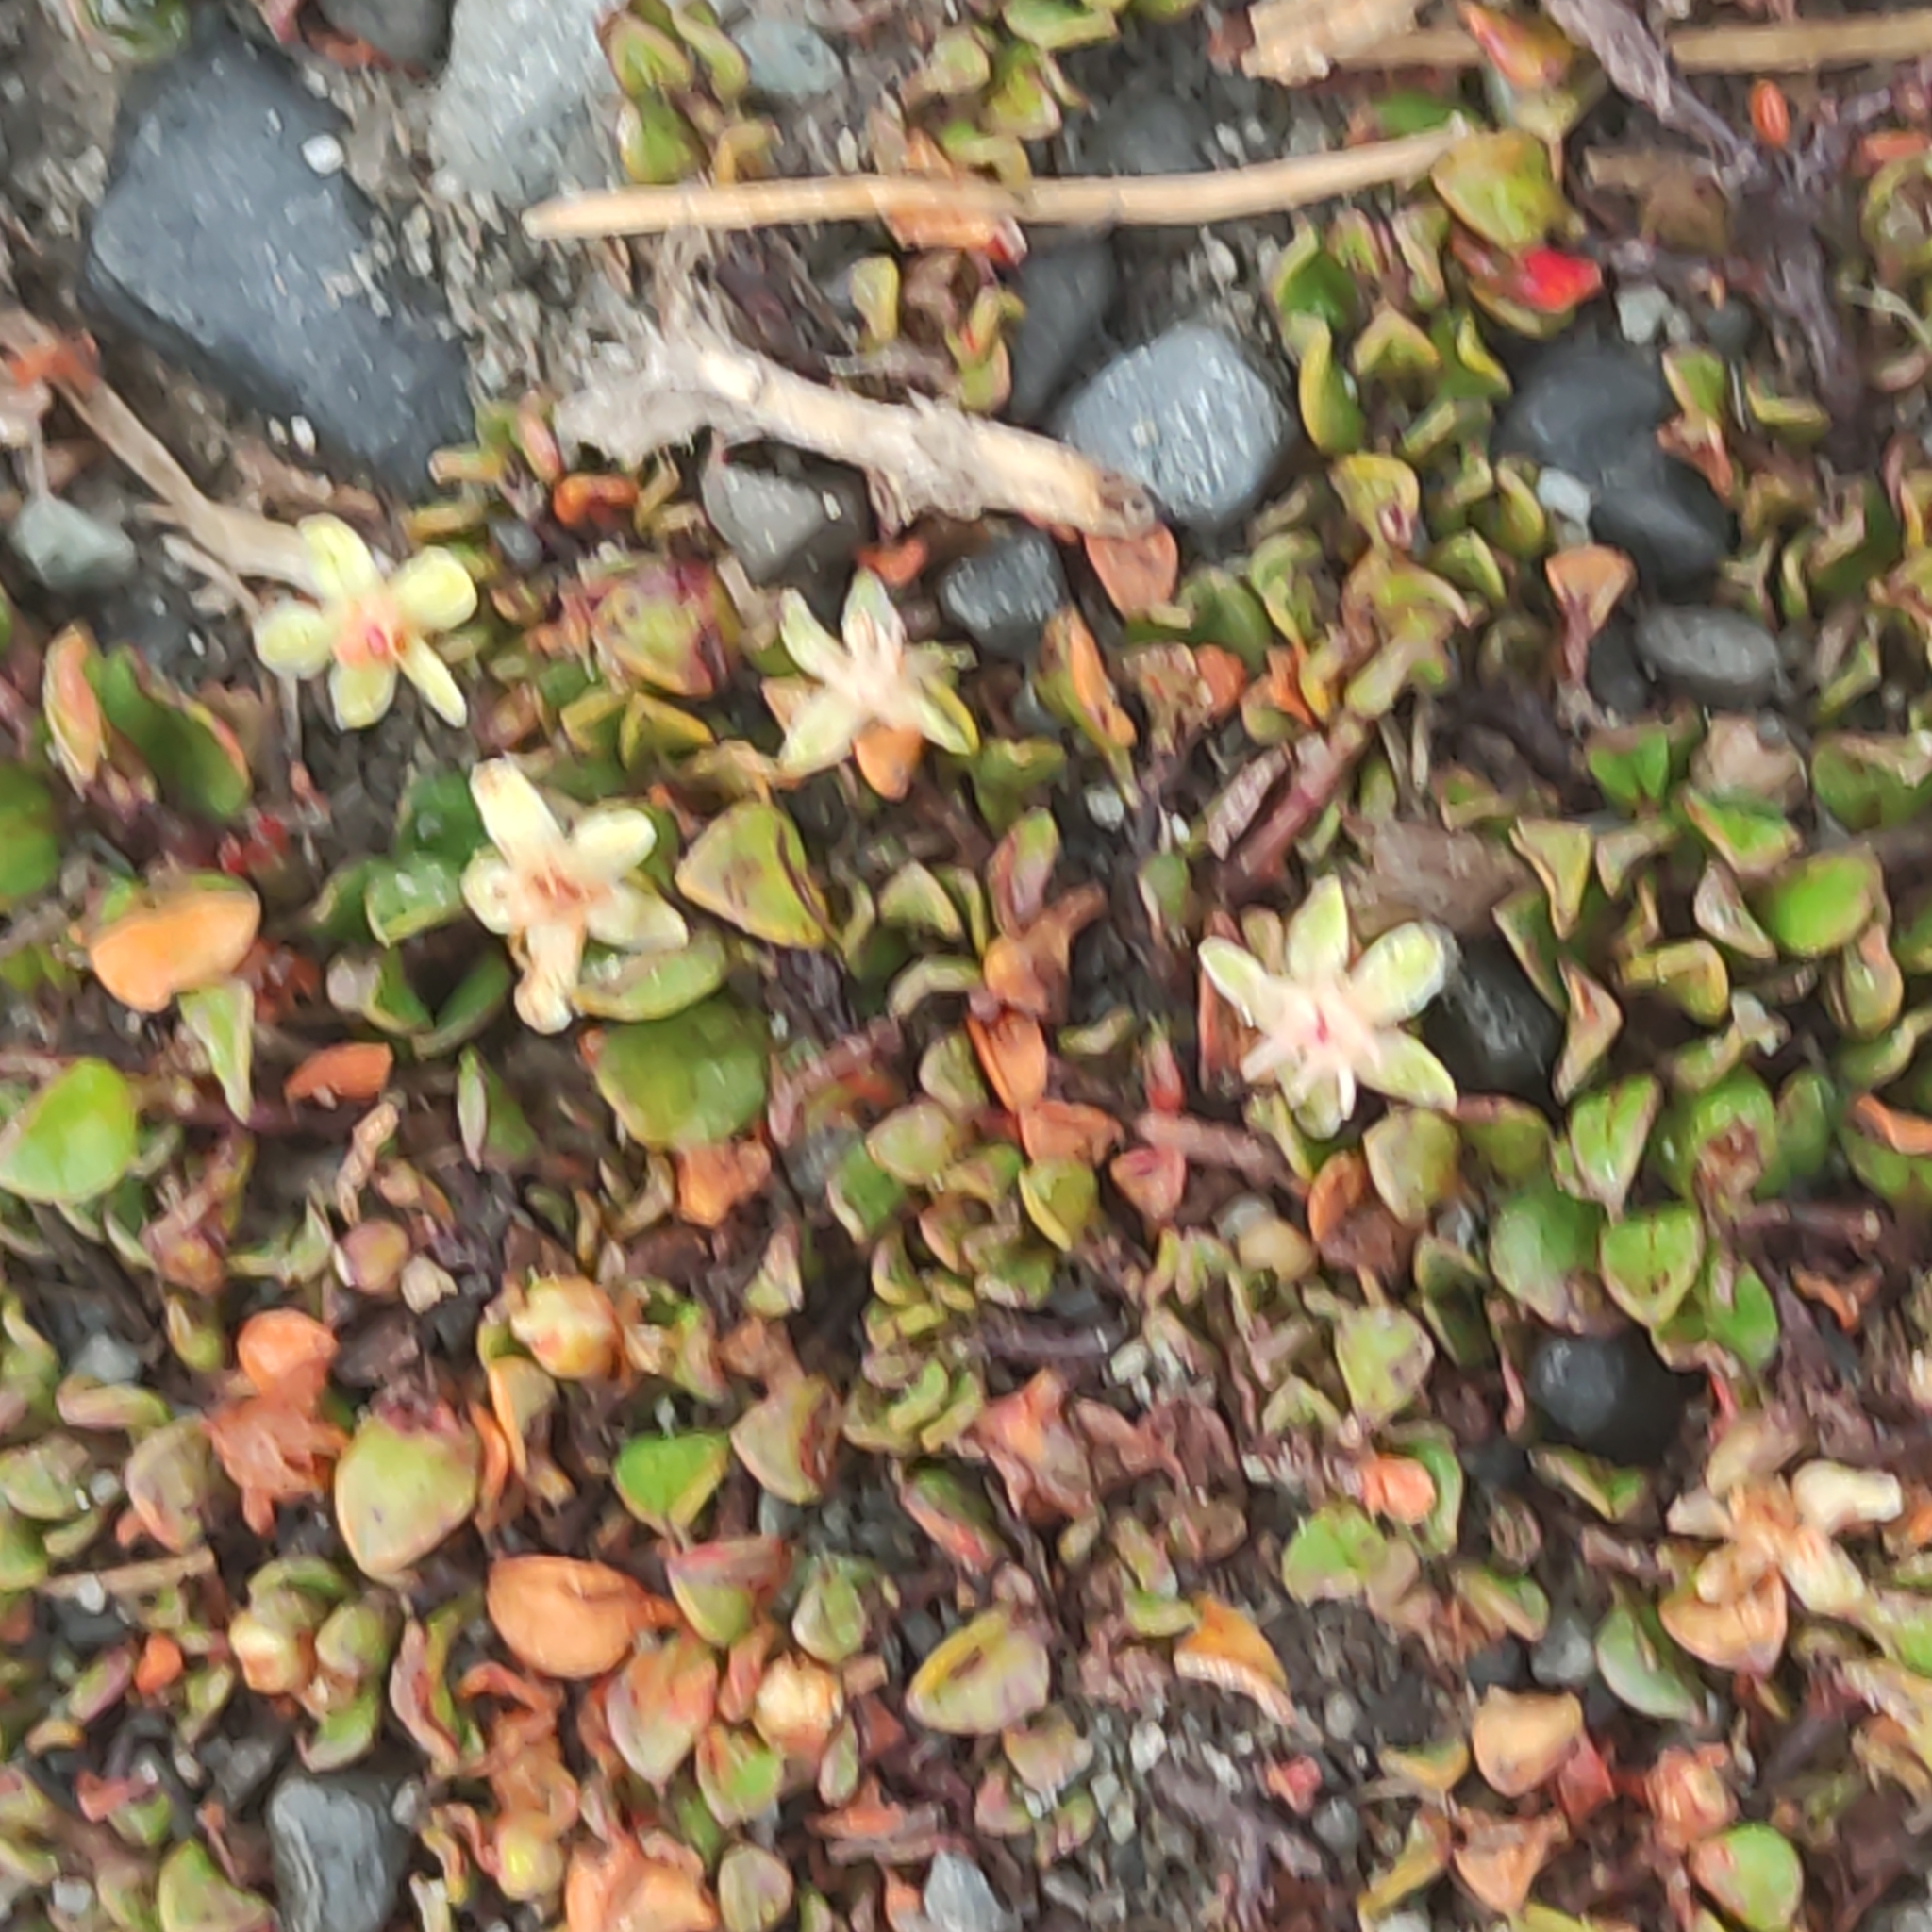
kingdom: Plantae
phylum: Tracheophyta
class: Magnoliopsida
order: Caryophyllales
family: Polygonaceae
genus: Muehlenbeckia
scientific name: Muehlenbeckia axillaris
